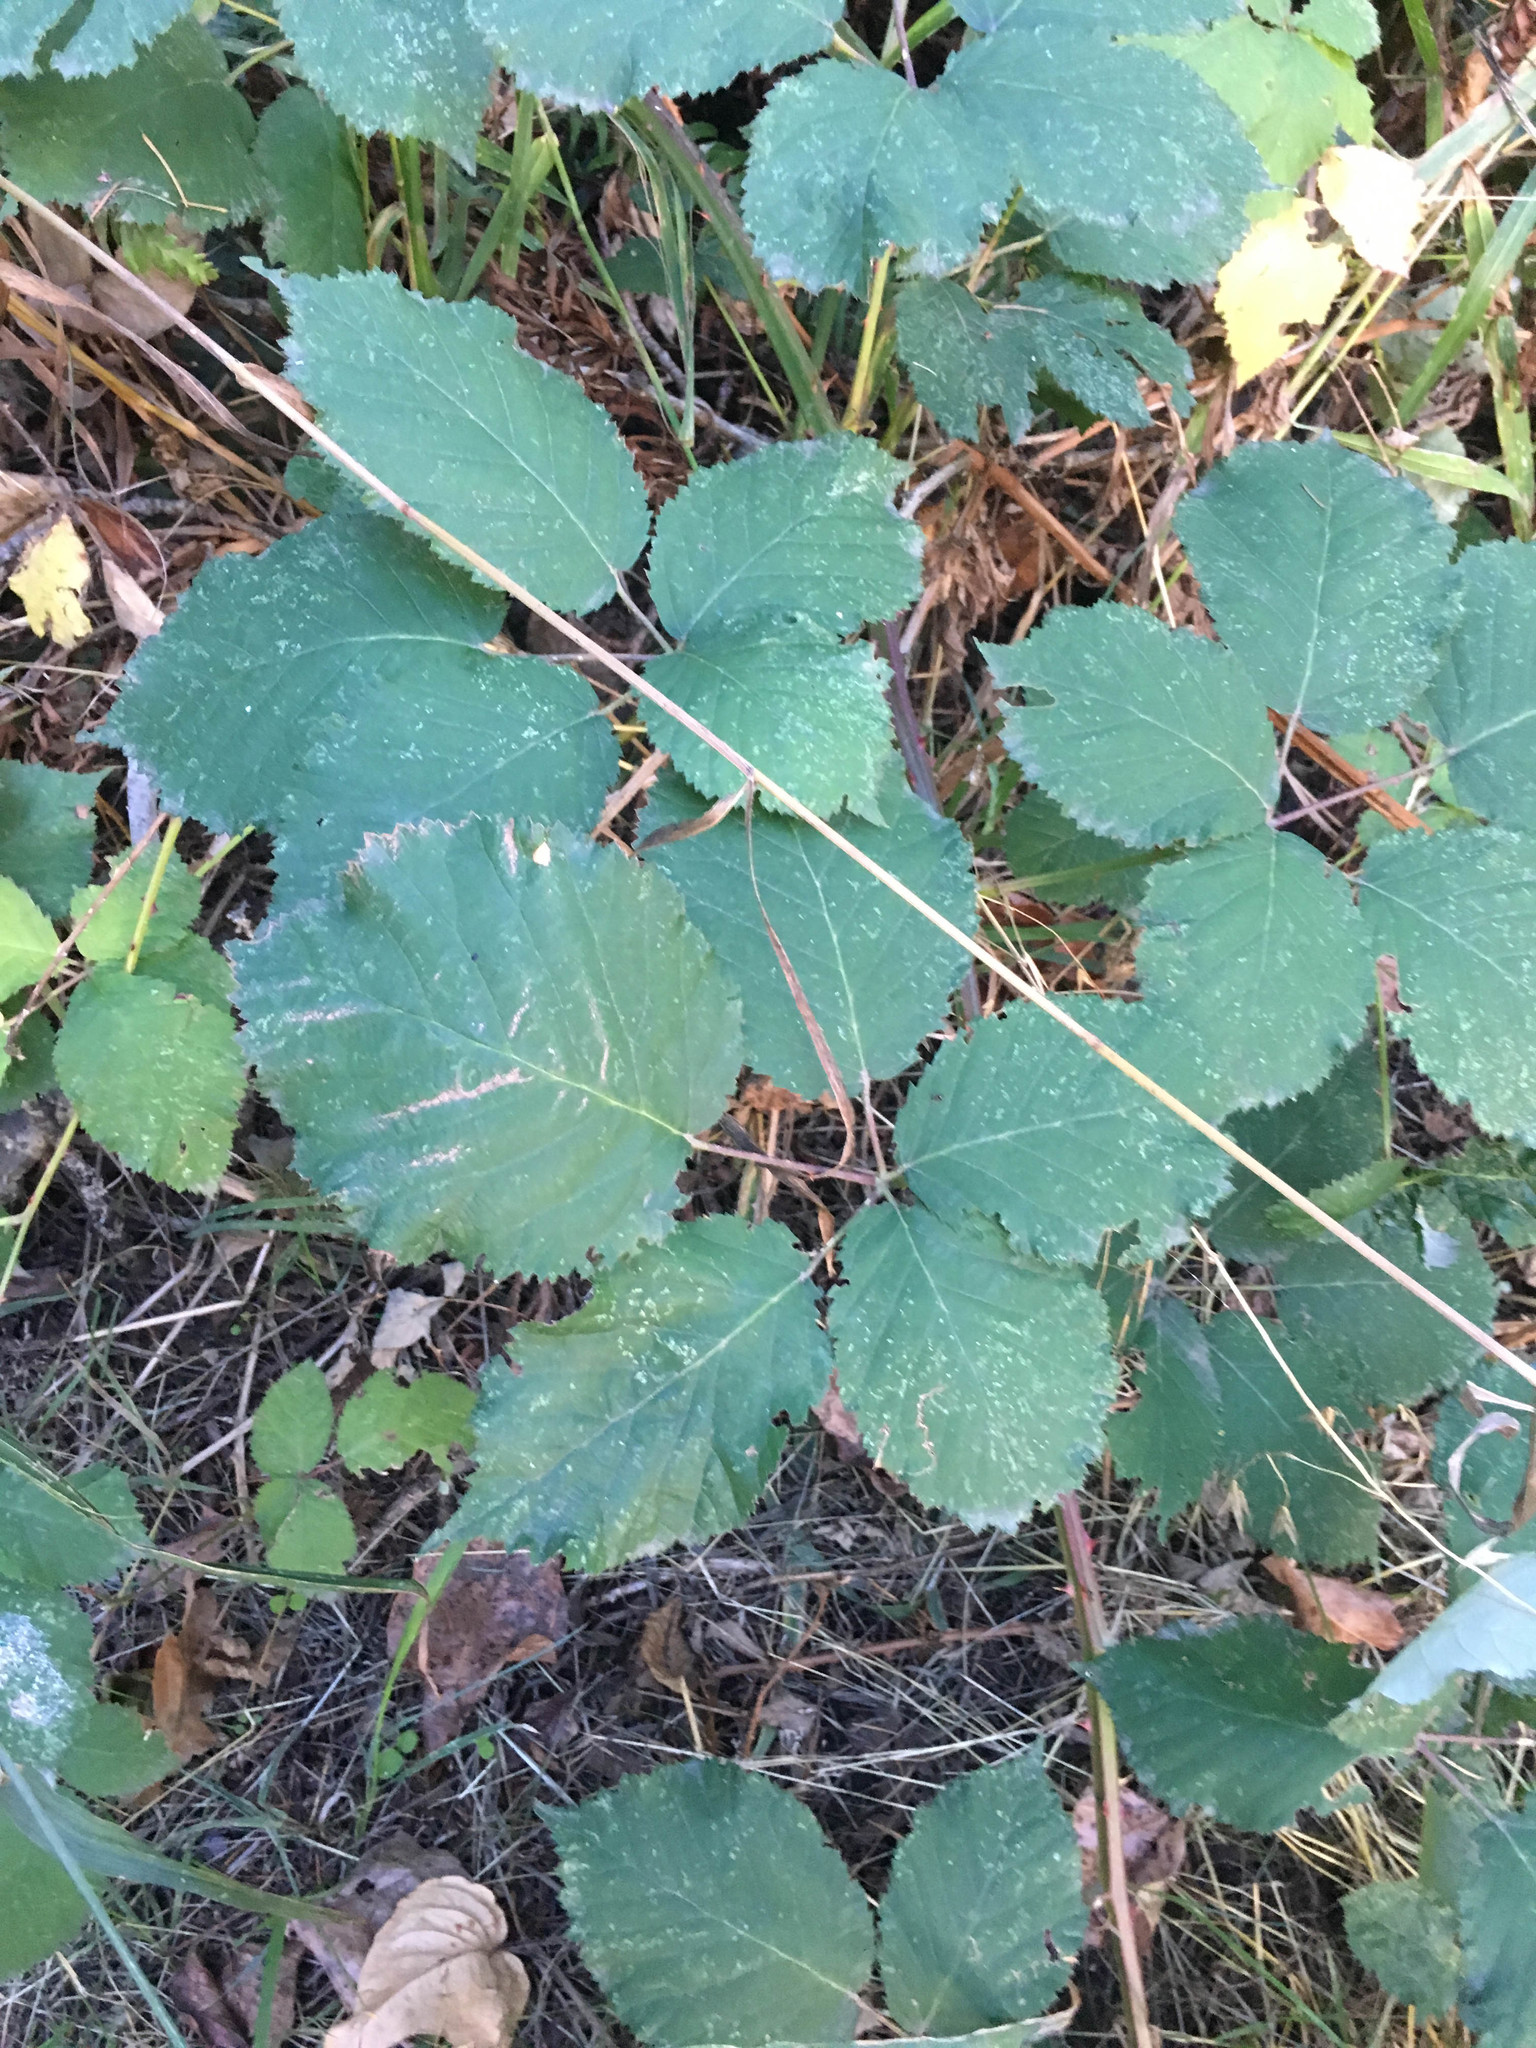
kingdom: Plantae
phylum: Tracheophyta
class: Magnoliopsida
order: Rosales
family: Rosaceae
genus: Rubus
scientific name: Rubus bifrons
